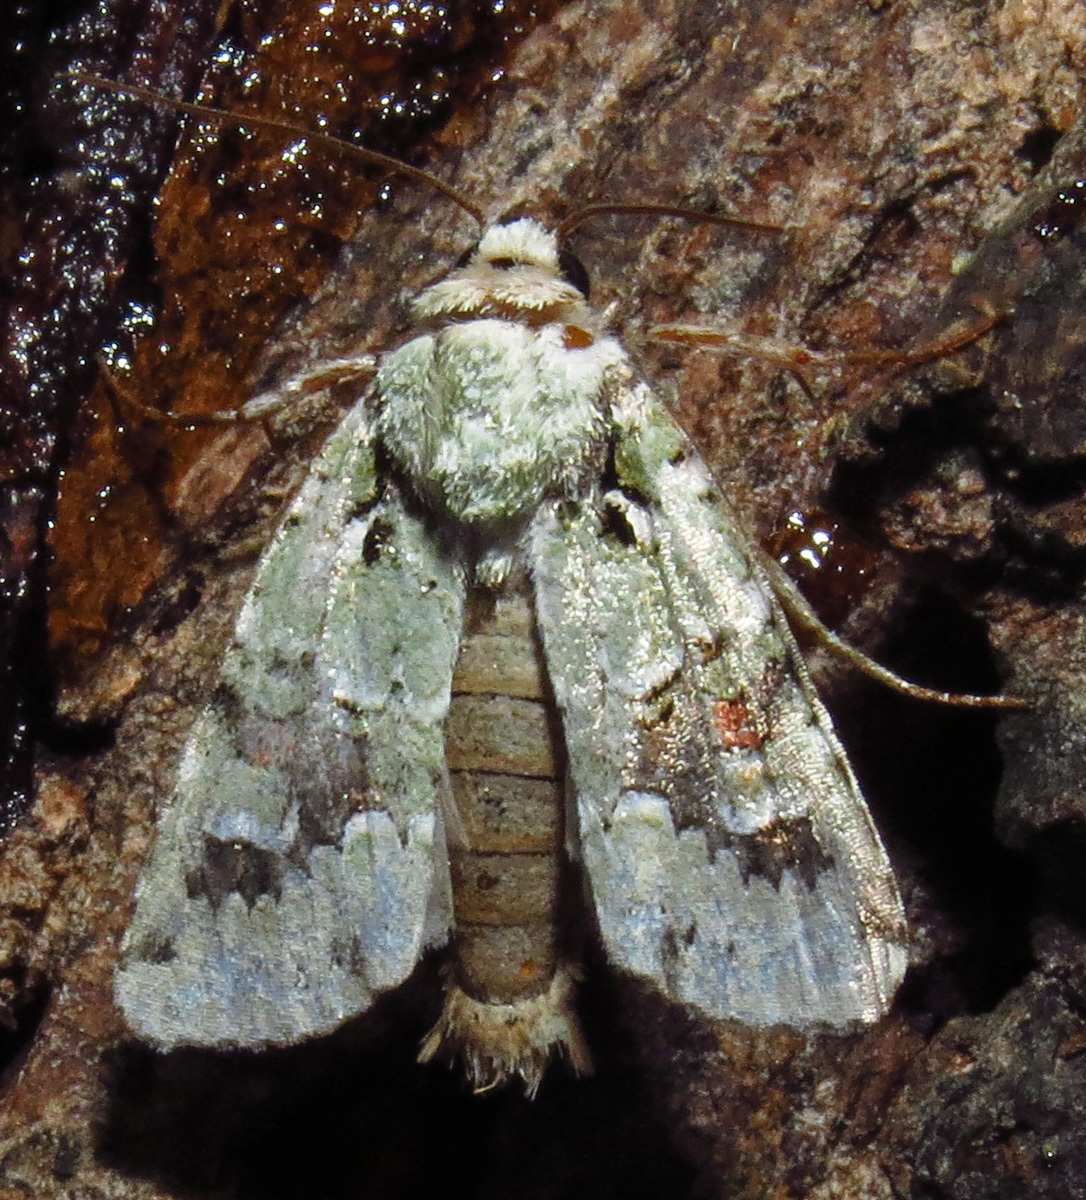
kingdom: Animalia
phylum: Arthropoda
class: Insecta
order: Lepidoptera
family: Noctuidae
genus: Lacinipolia
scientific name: Lacinipolia laudabilis
